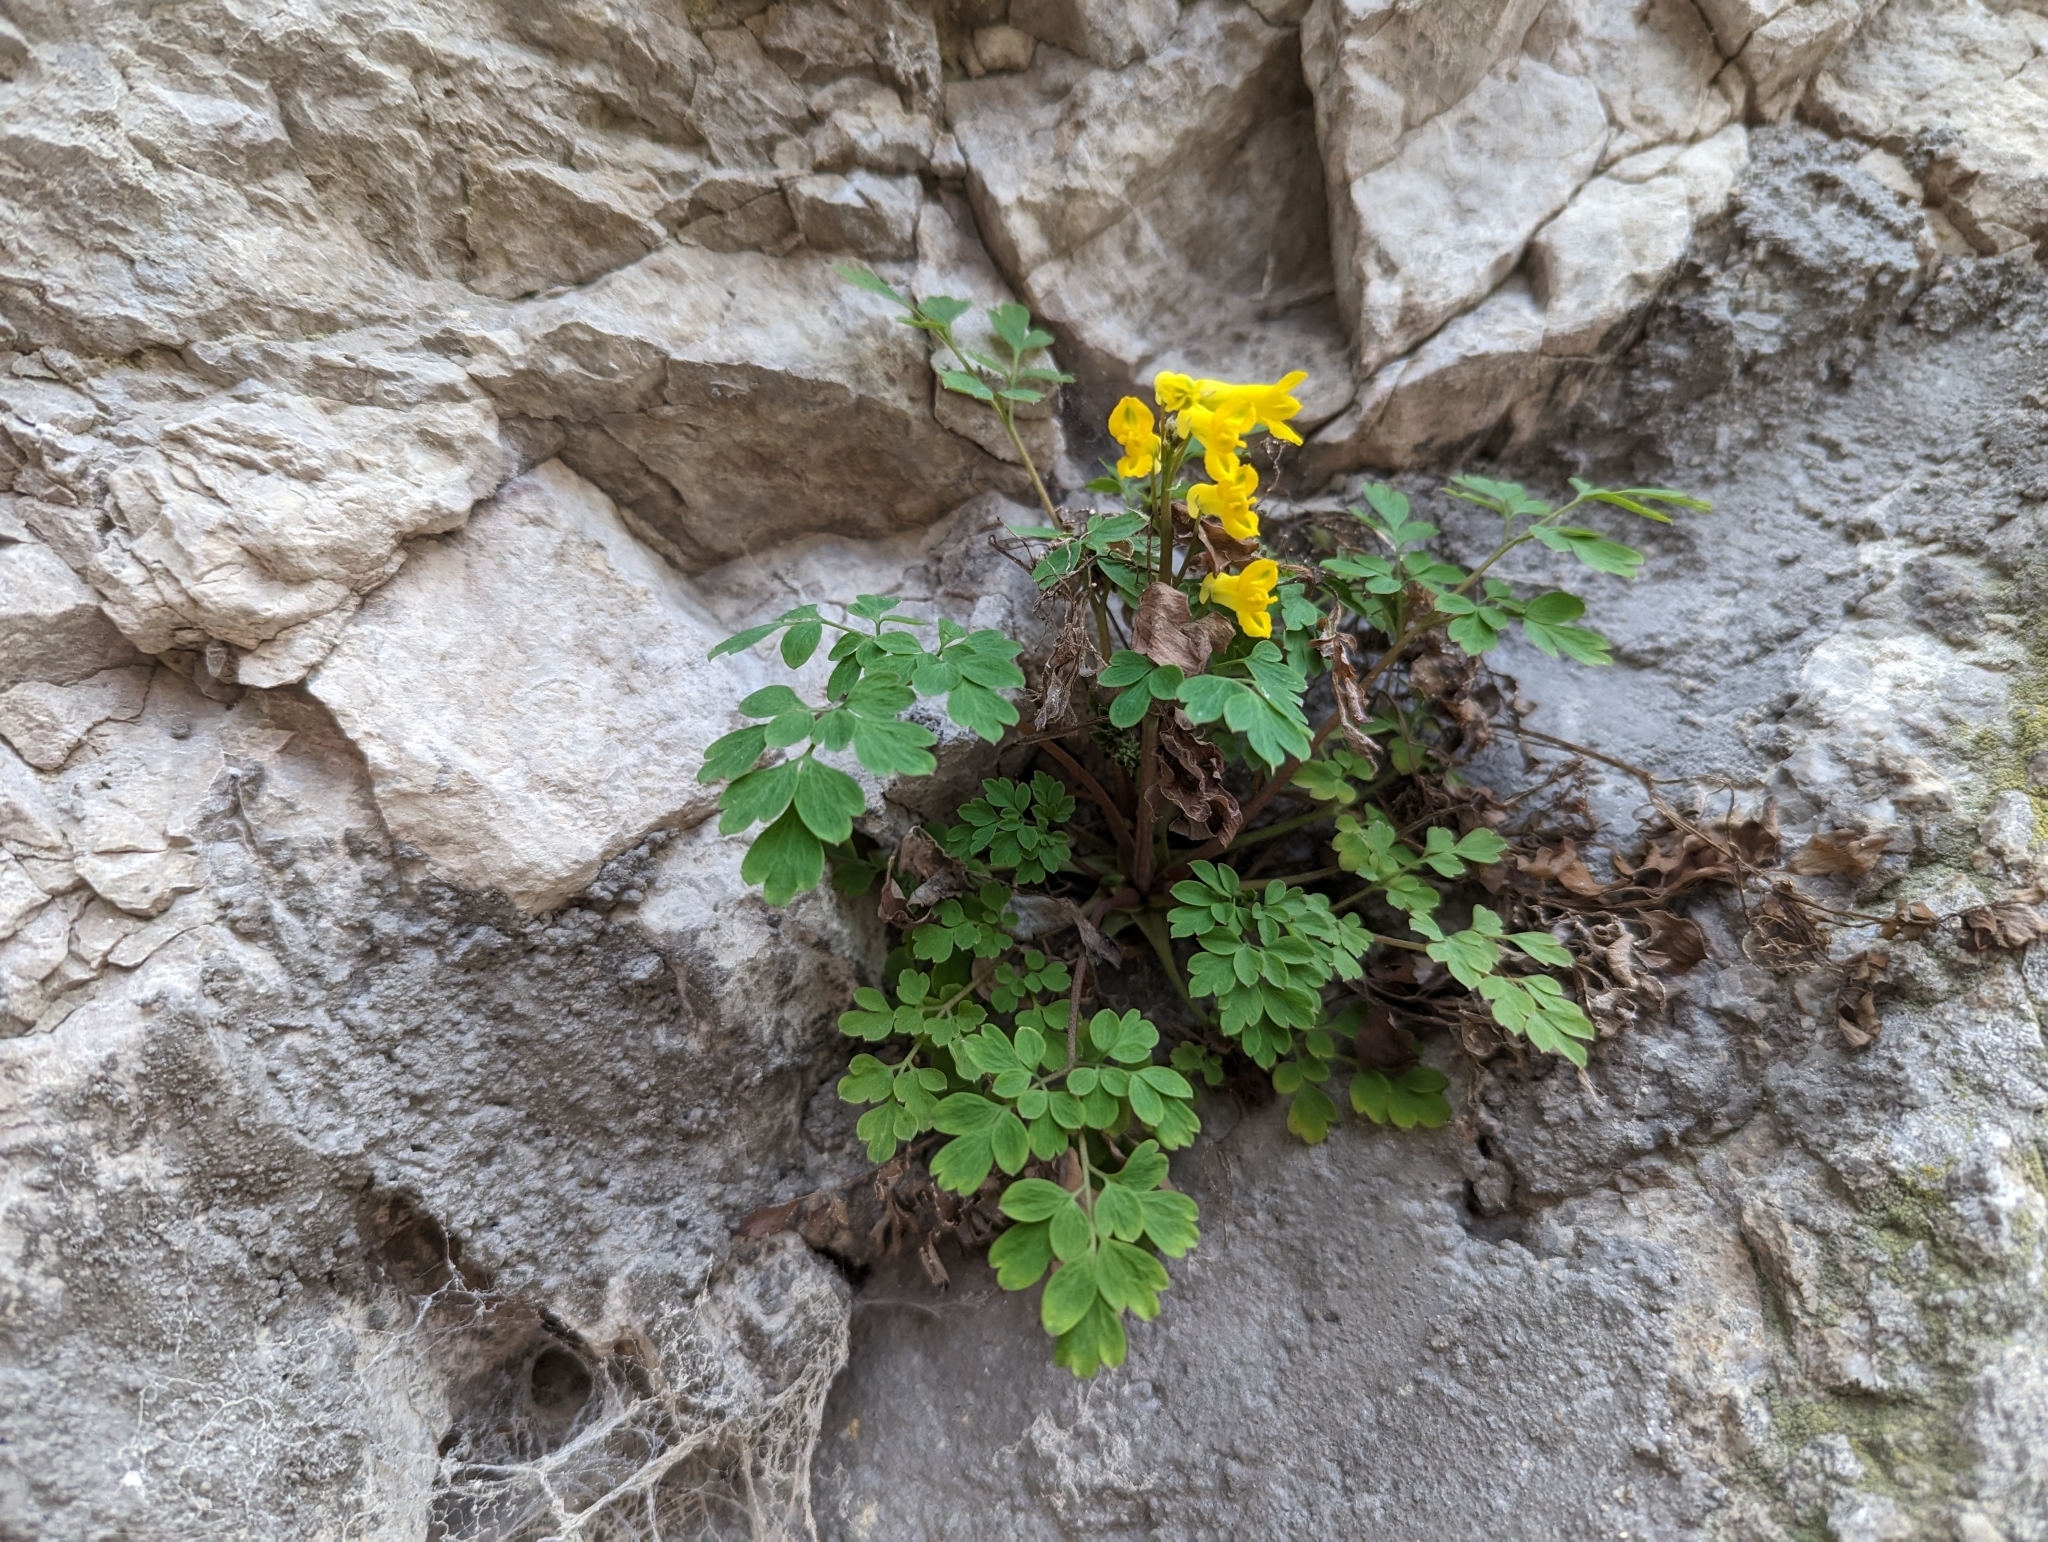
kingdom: Plantae
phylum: Tracheophyta
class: Magnoliopsida
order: Ranunculales
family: Papaveraceae
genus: Pseudofumaria
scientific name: Pseudofumaria lutea
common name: Yellow corydalis
